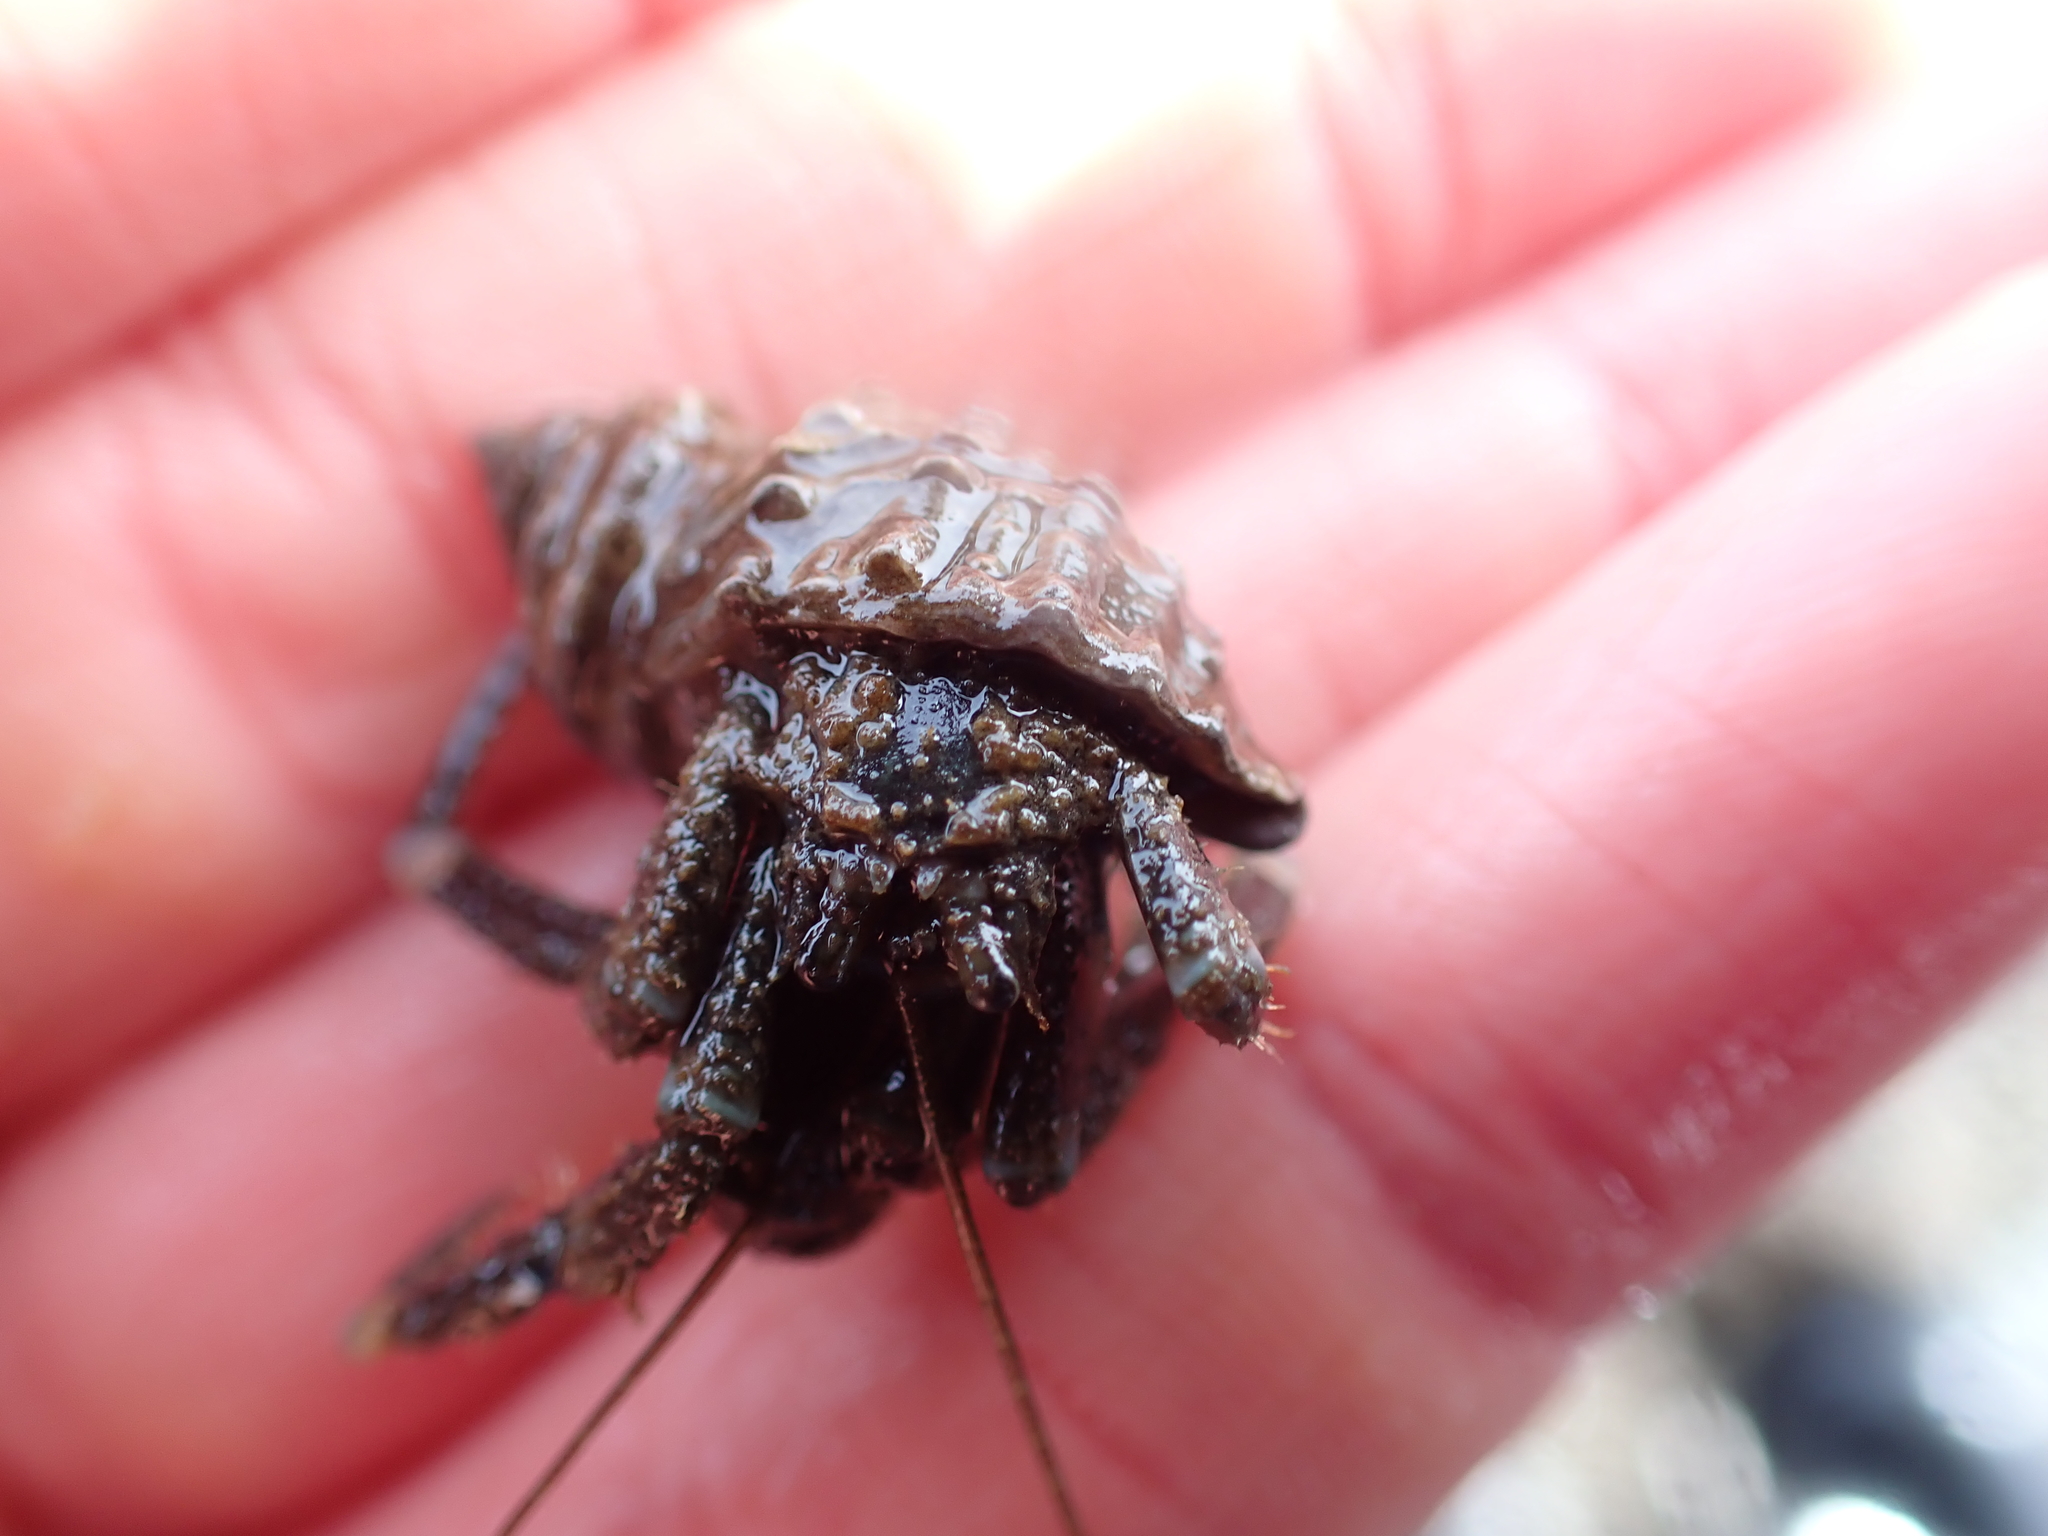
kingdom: Animalia
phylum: Arthropoda
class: Malacostraca
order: Decapoda
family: Paguridae
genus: Pagurus
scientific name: Pagurus hirsutiusculus
